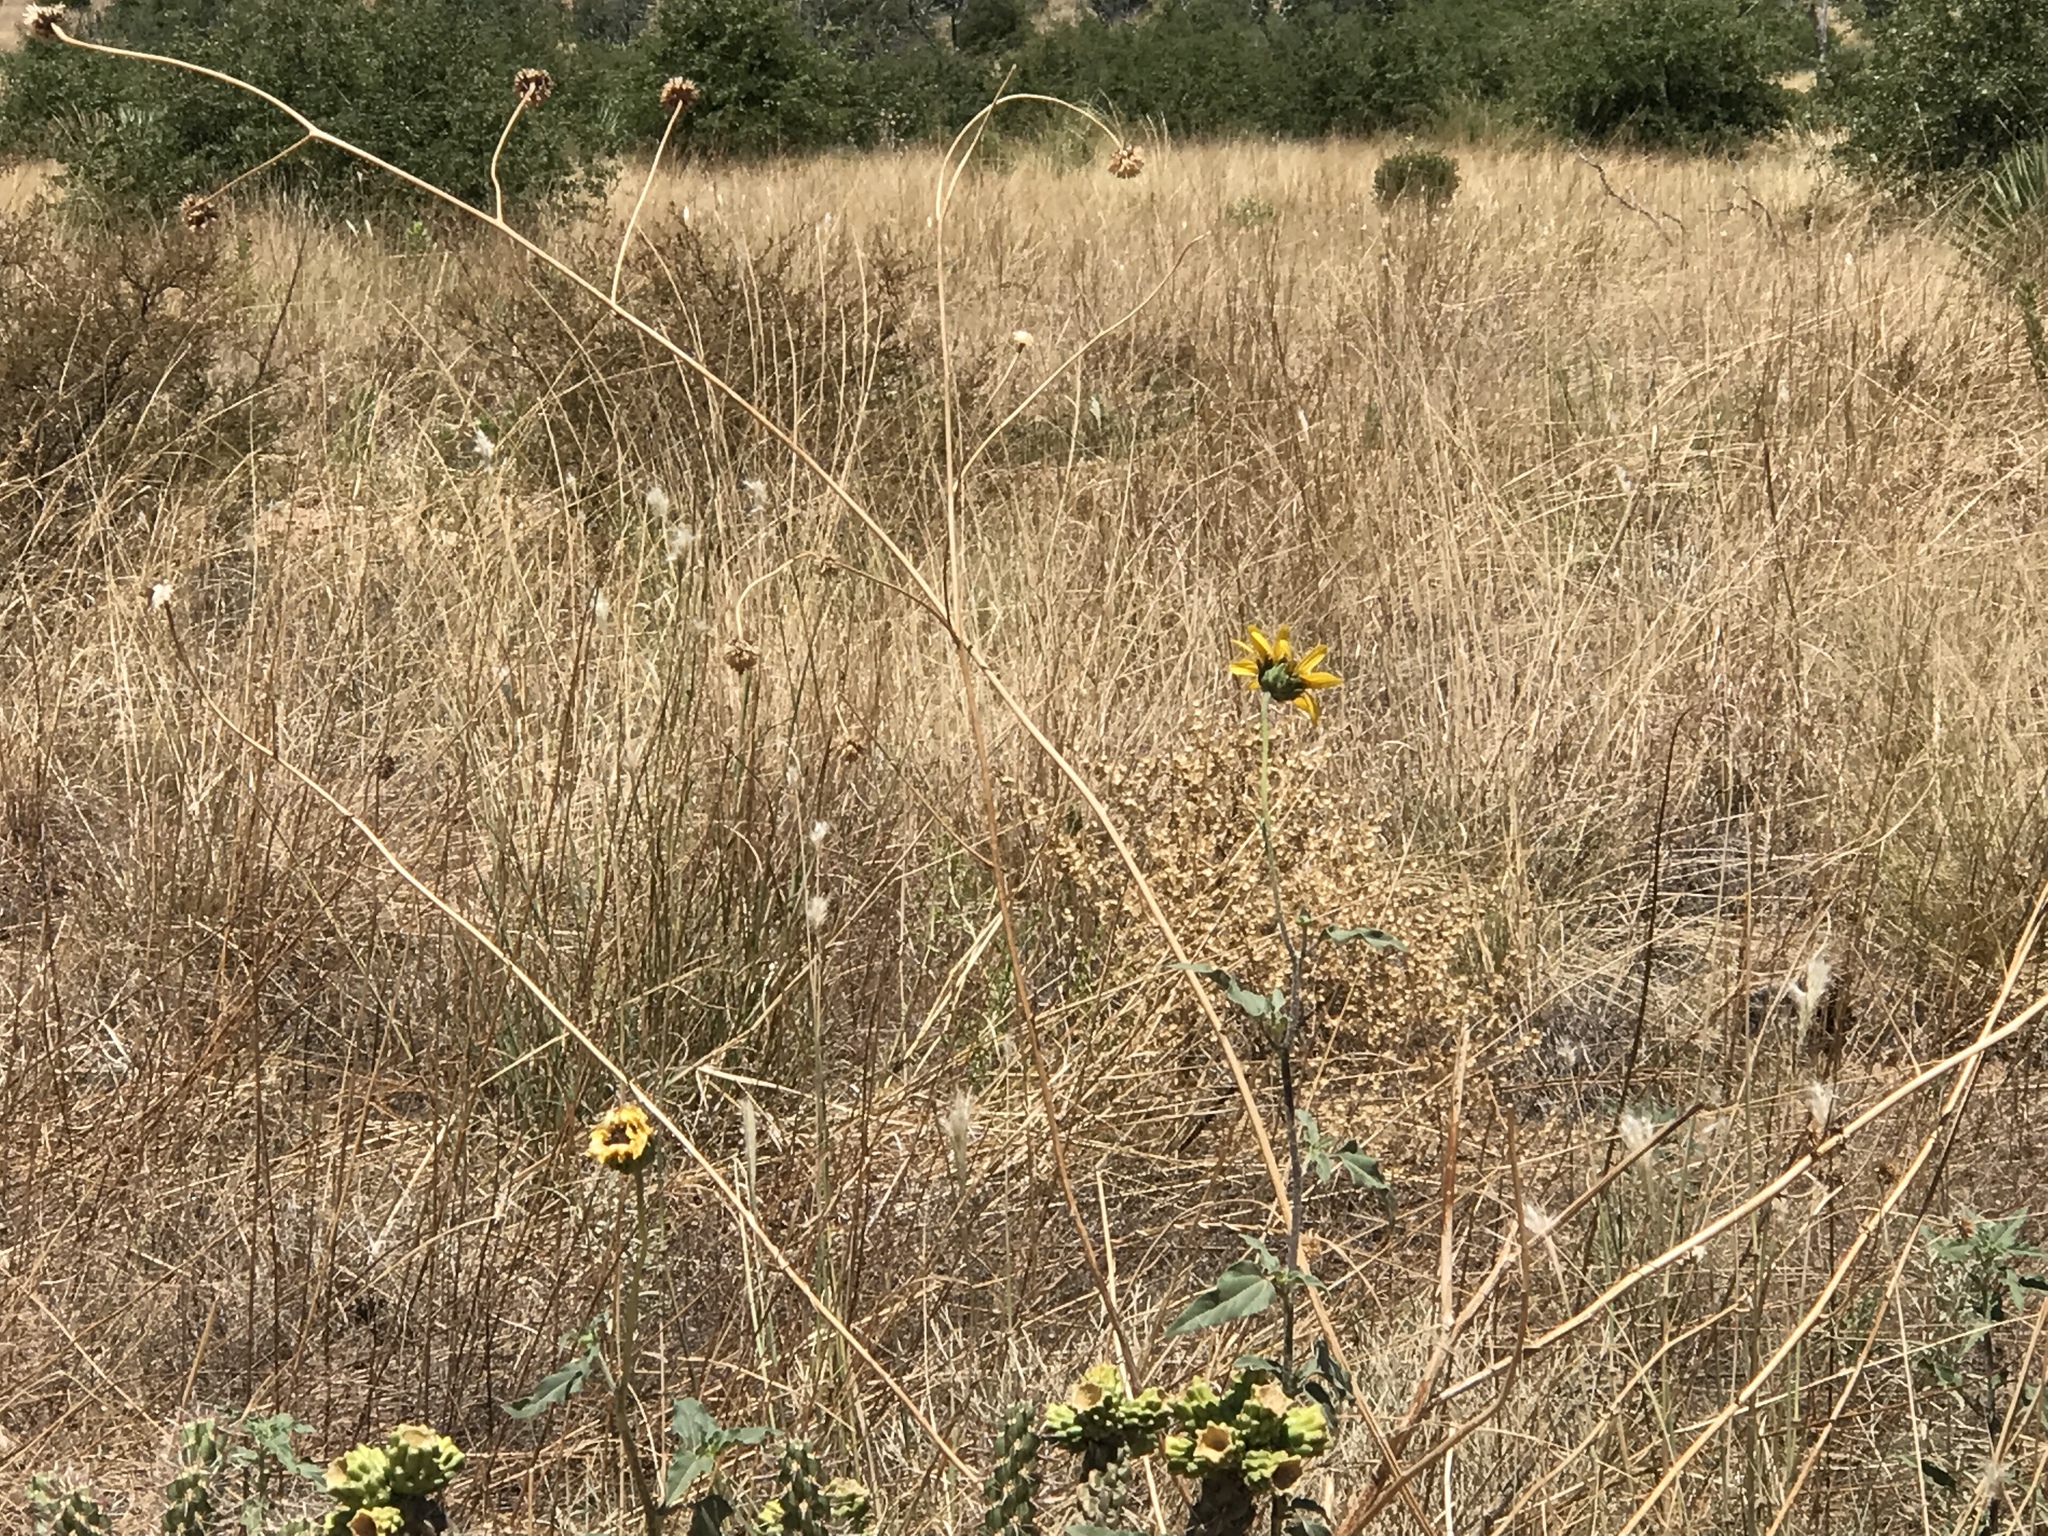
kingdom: Plantae
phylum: Tracheophyta
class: Magnoliopsida
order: Asterales
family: Asteraceae
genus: Helianthus
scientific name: Helianthus annuus
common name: Sunflower
